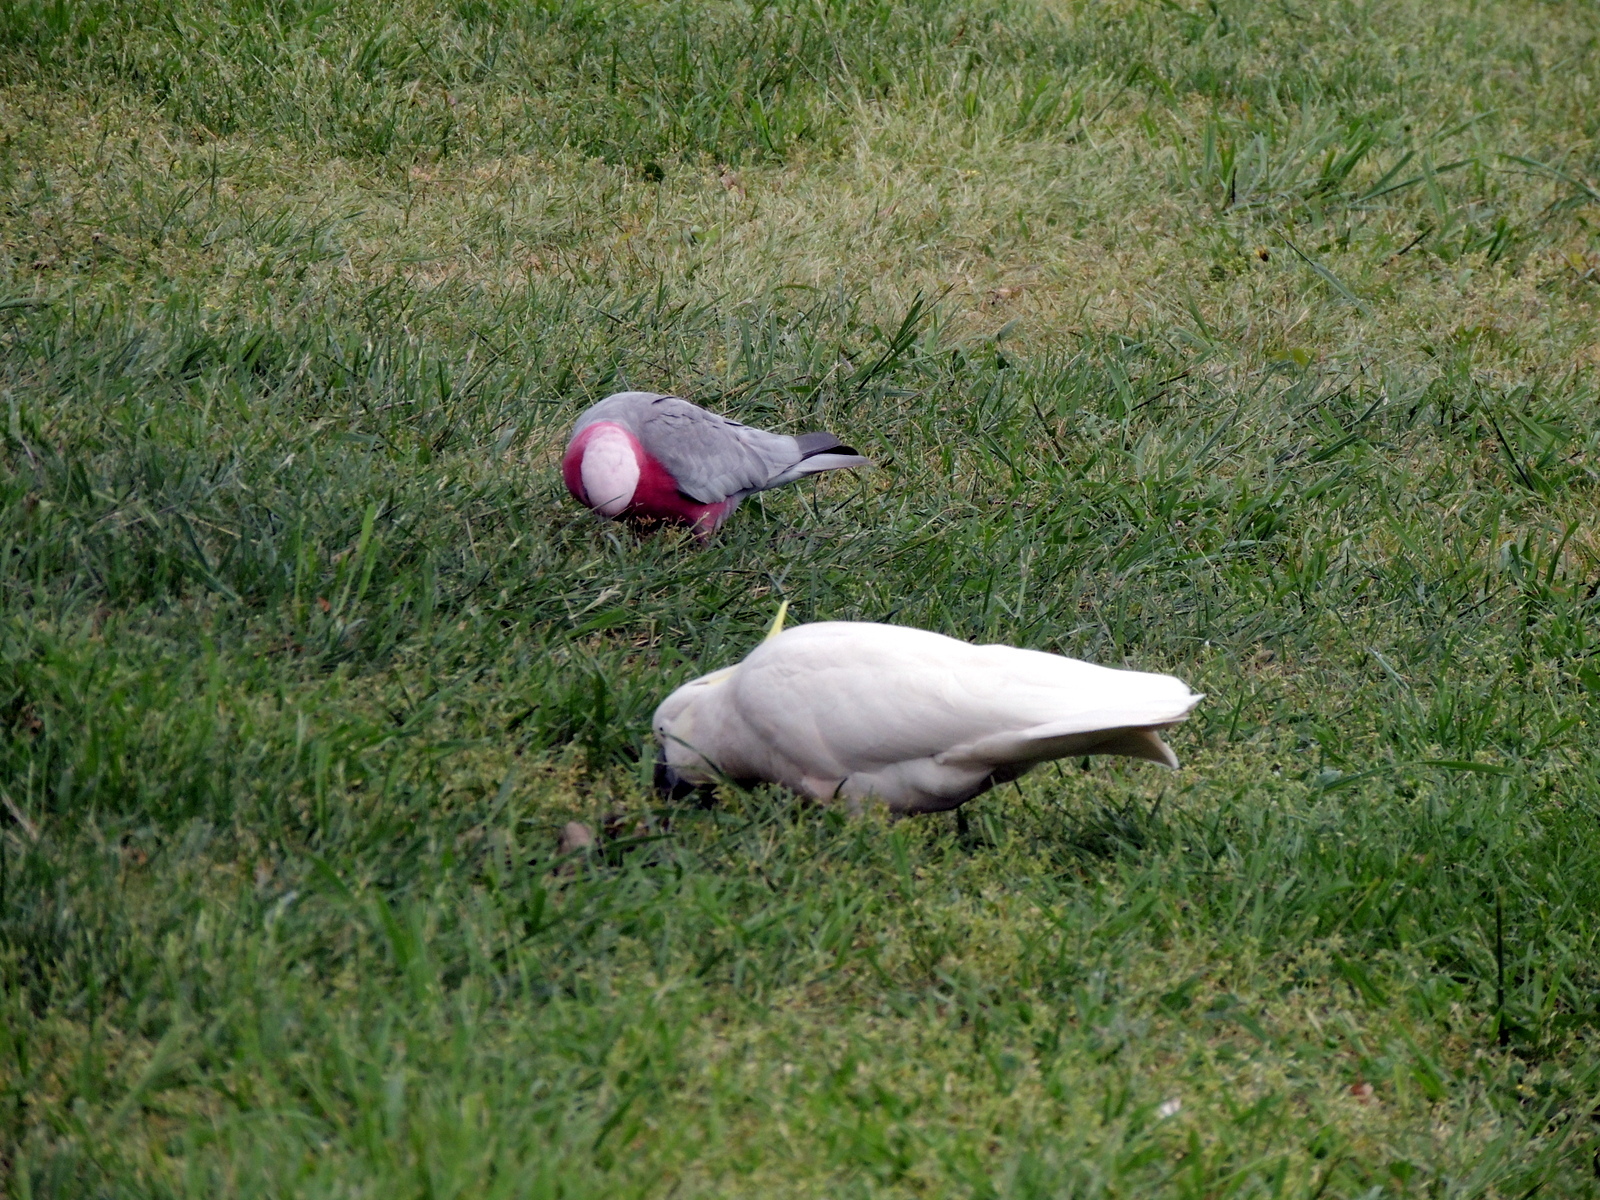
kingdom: Animalia
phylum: Chordata
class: Aves
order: Psittaciformes
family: Psittacidae
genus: Eolophus
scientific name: Eolophus roseicapilla
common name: Galah
